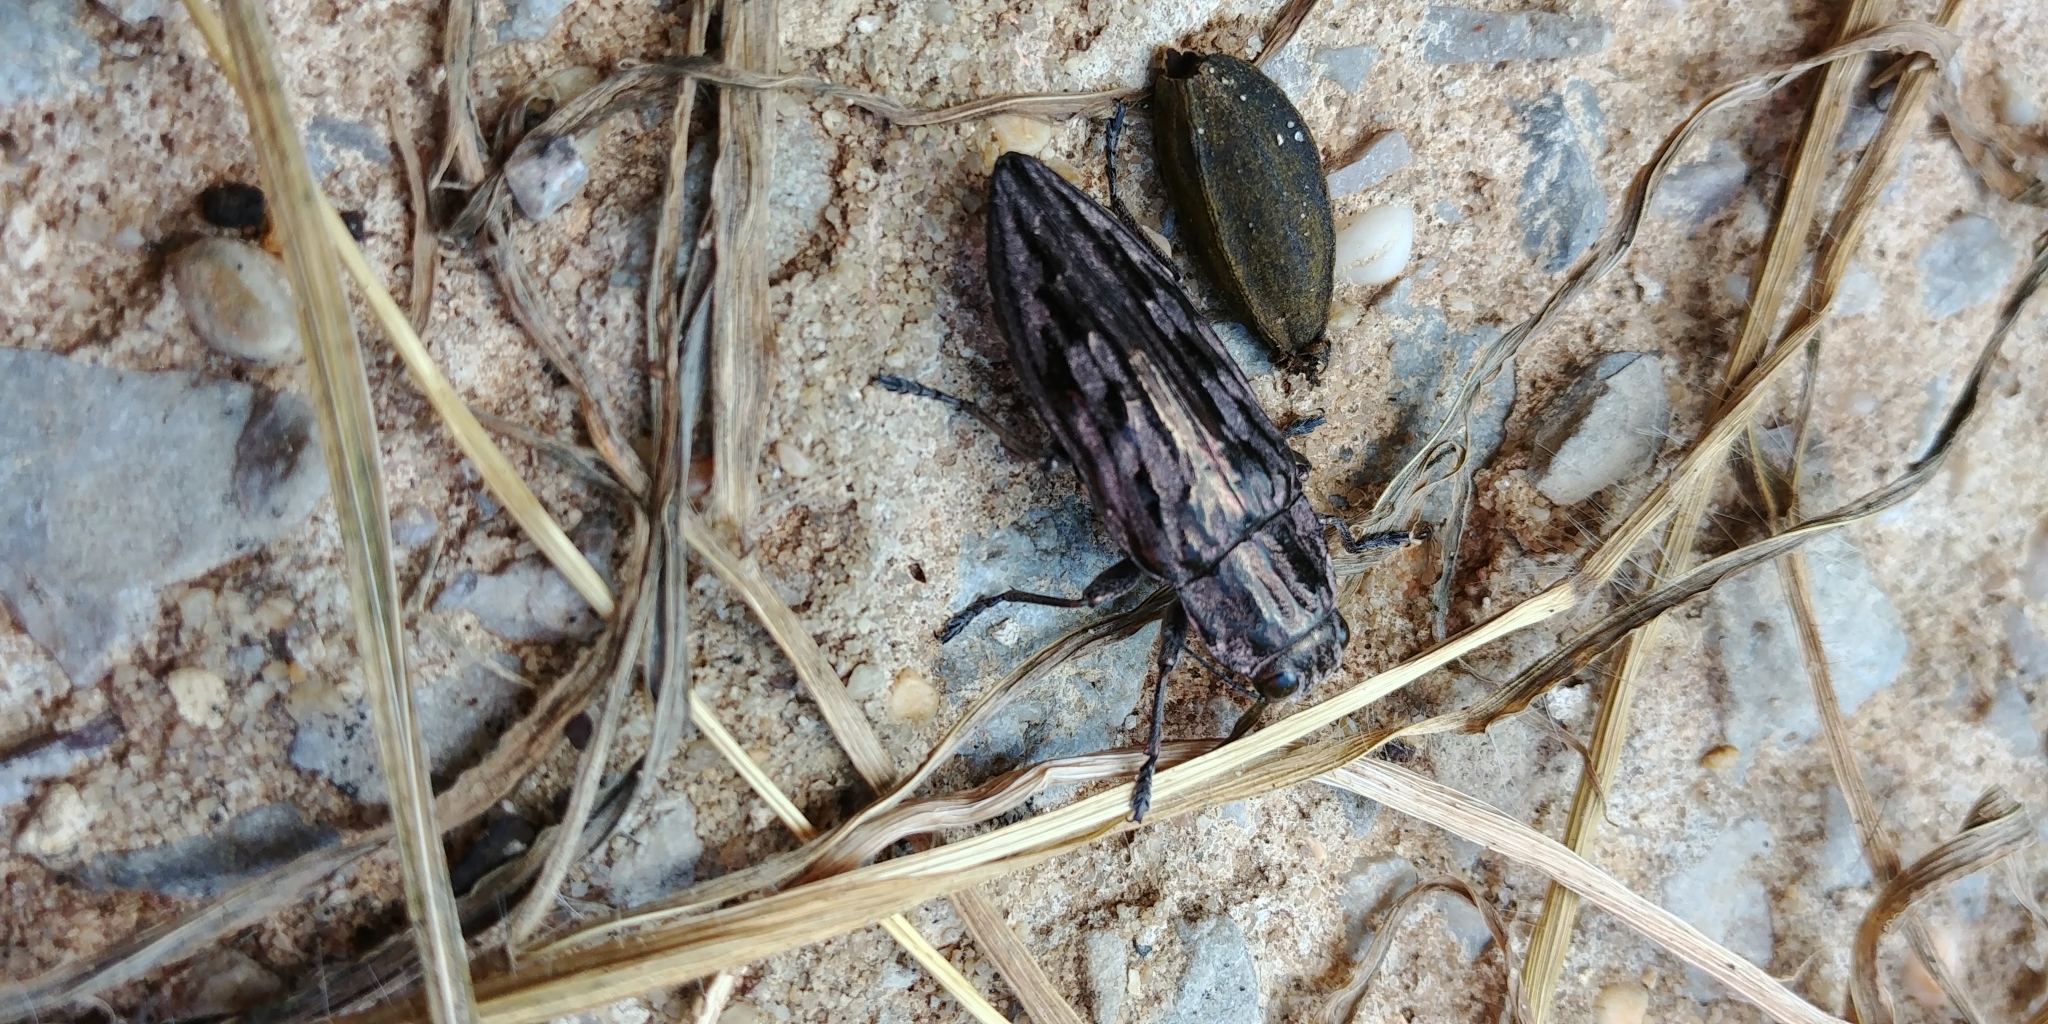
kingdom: Animalia
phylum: Arthropoda
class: Insecta
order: Coleoptera
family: Buprestidae
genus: Chalcophora
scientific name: Chalcophora virginiensis
